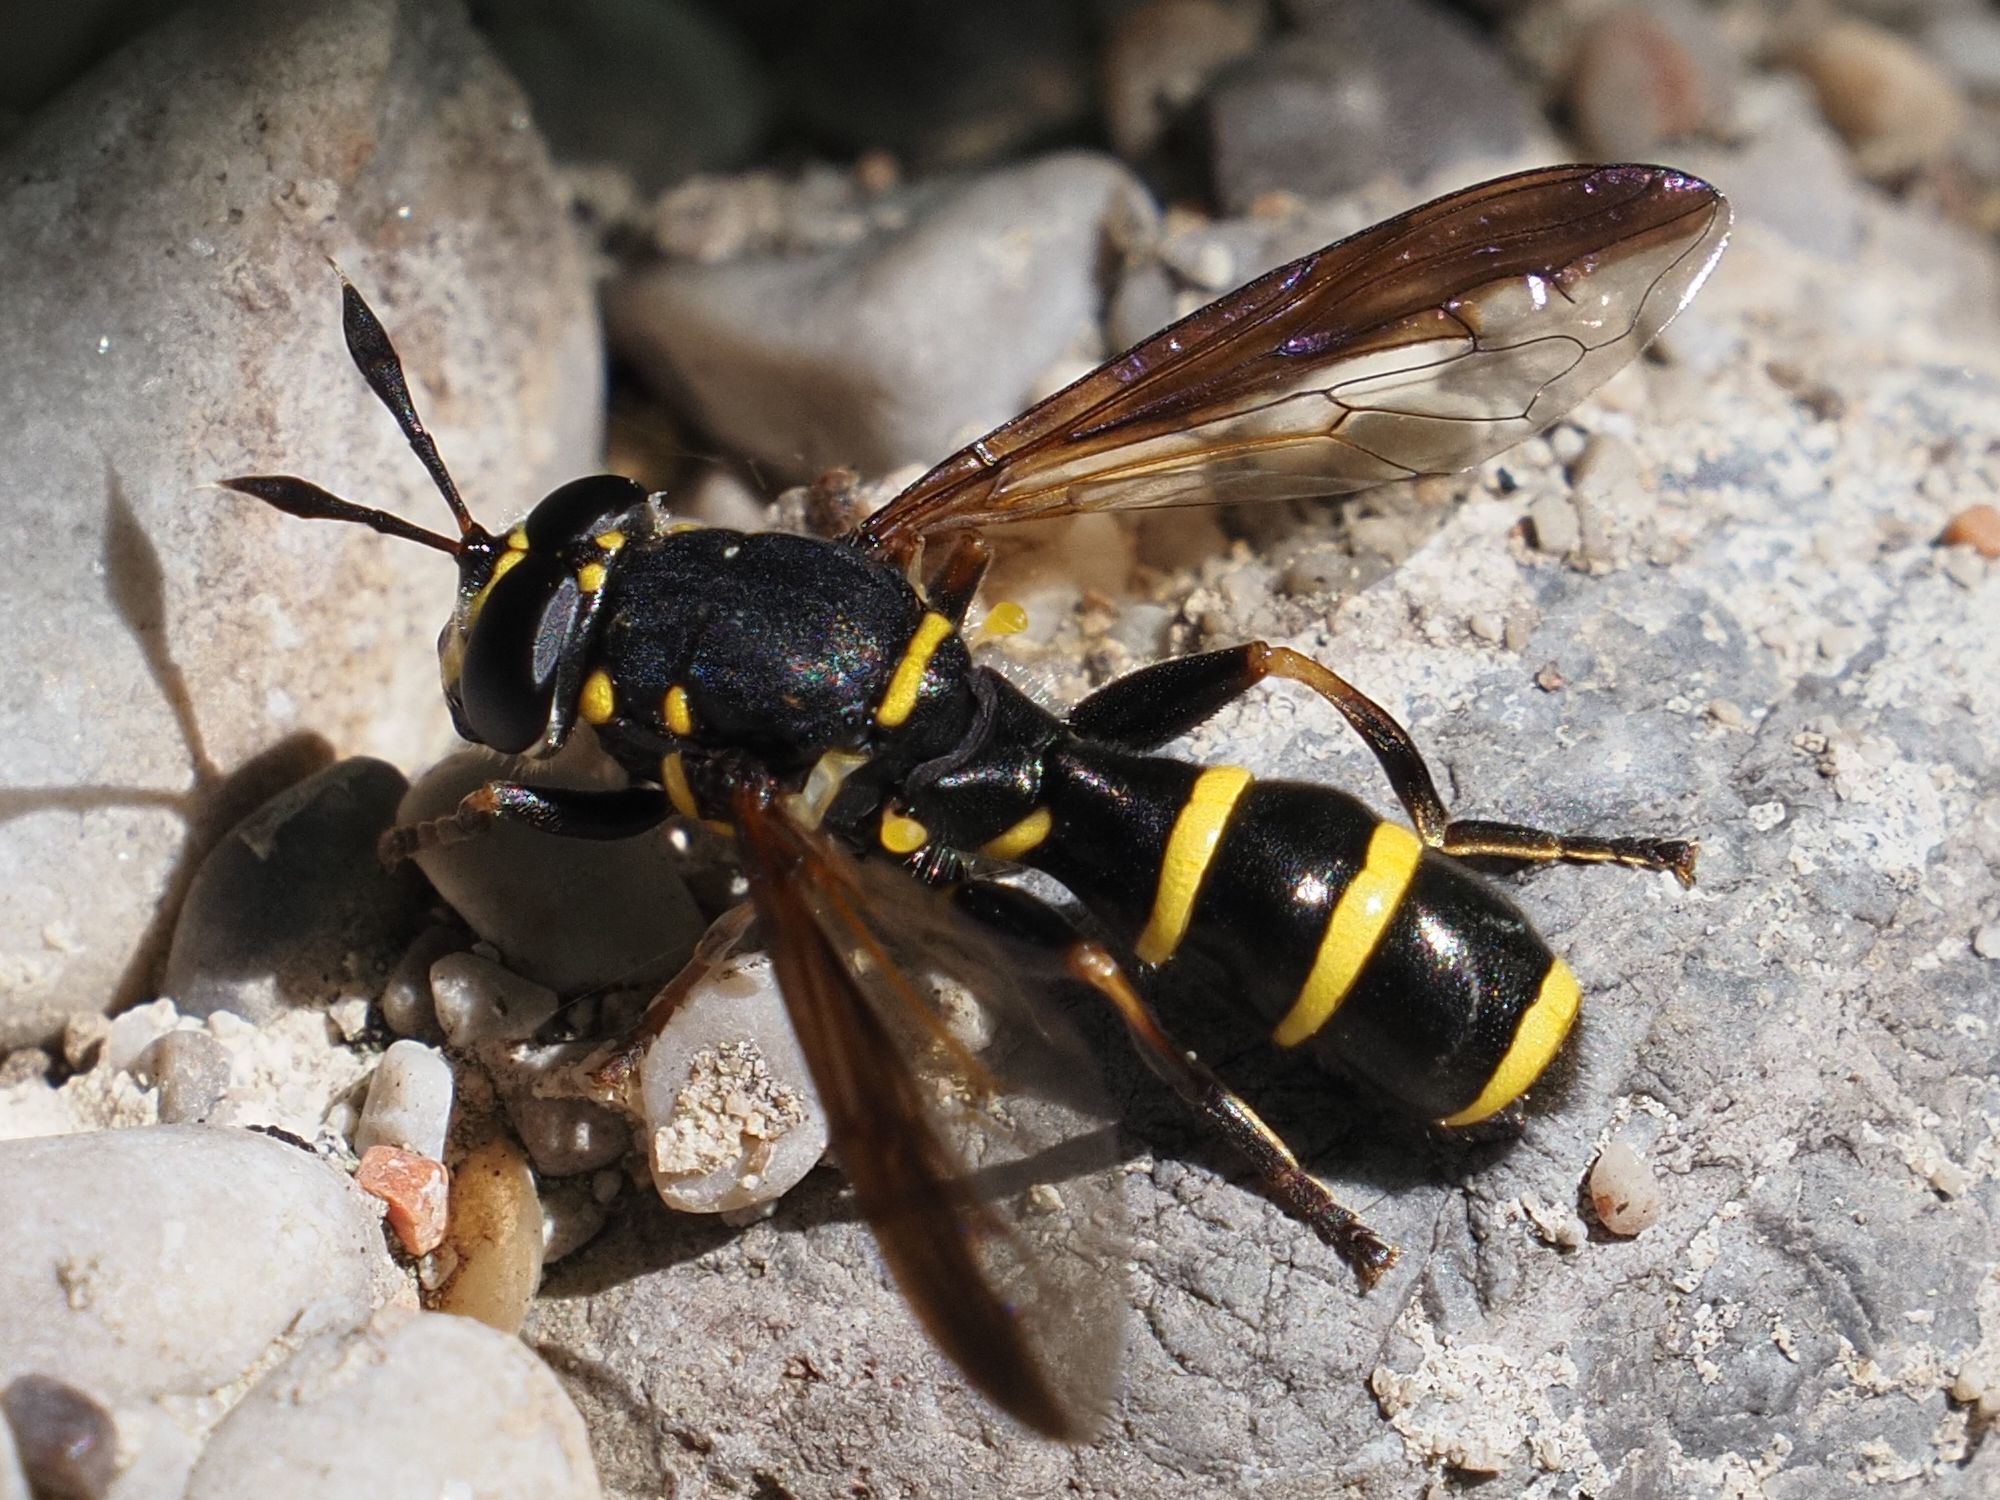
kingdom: Animalia
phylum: Arthropoda
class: Insecta
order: Diptera
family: Syrphidae
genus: Sphiximorpha
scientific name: Sphiximorpha subsessilis
